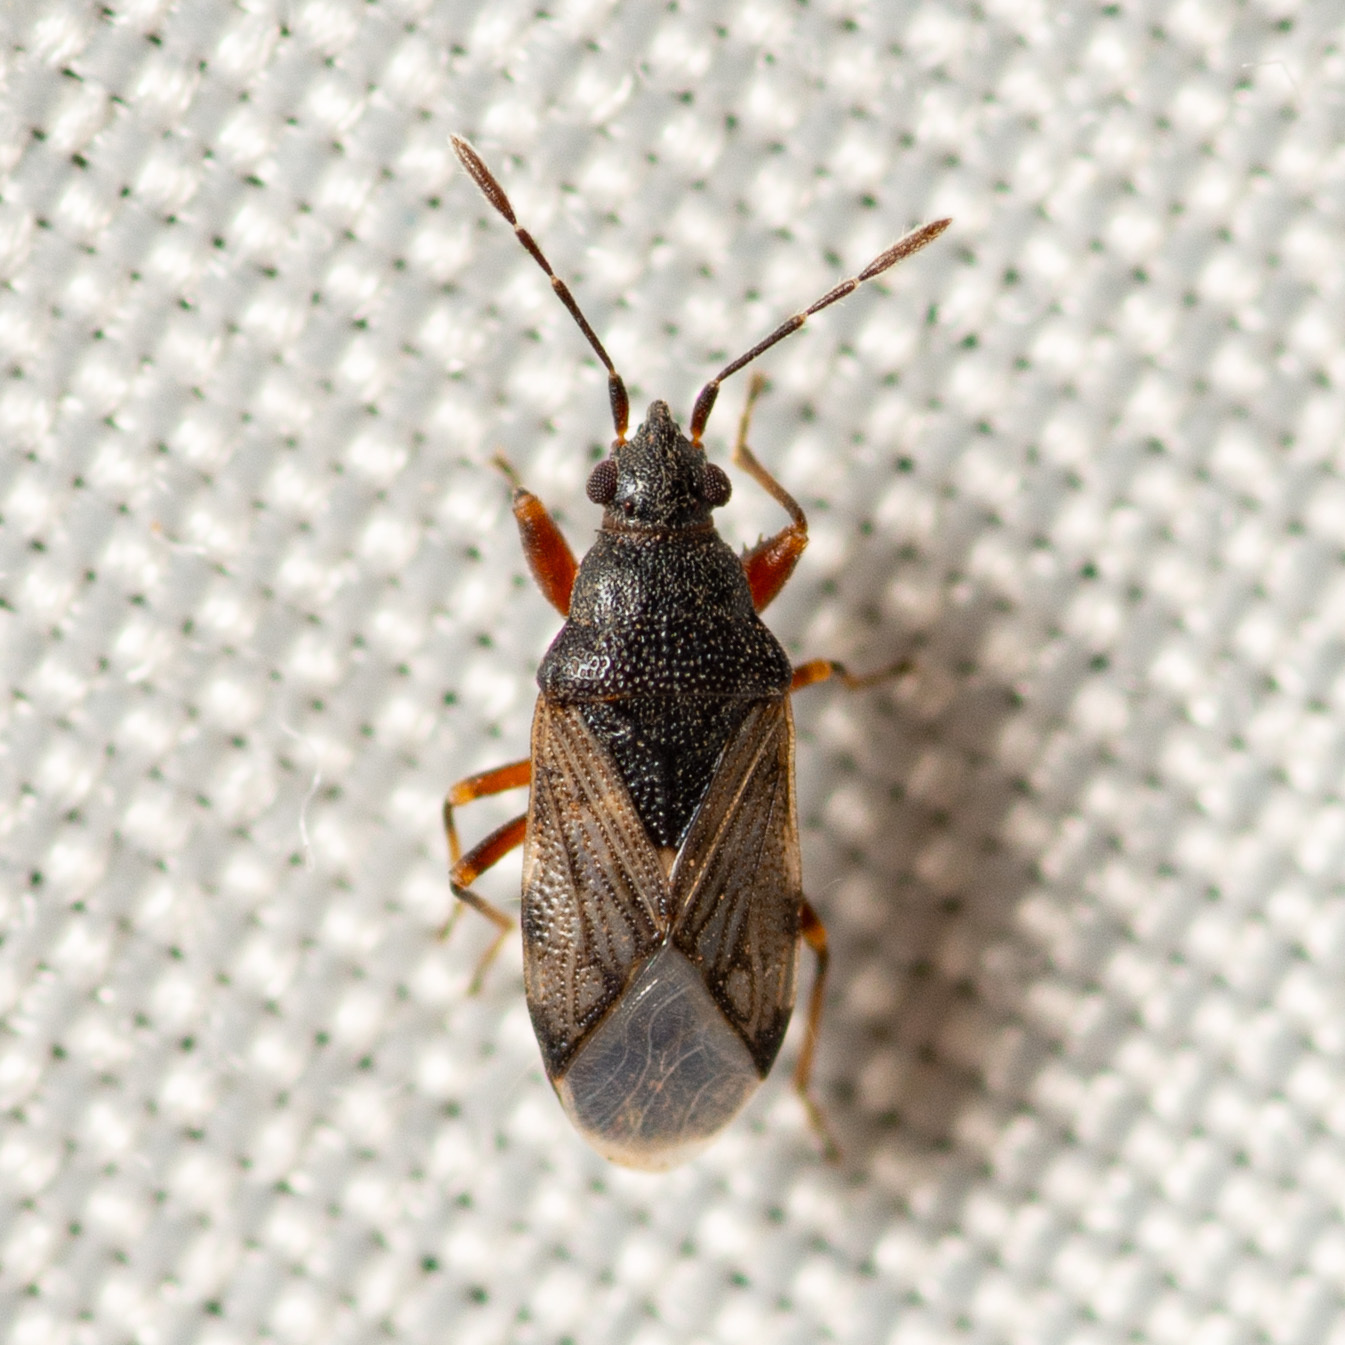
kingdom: Animalia
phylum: Arthropoda
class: Insecta
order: Hemiptera
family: Rhyparochromidae
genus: Prytanes
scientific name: Prytanes fuscicornis
